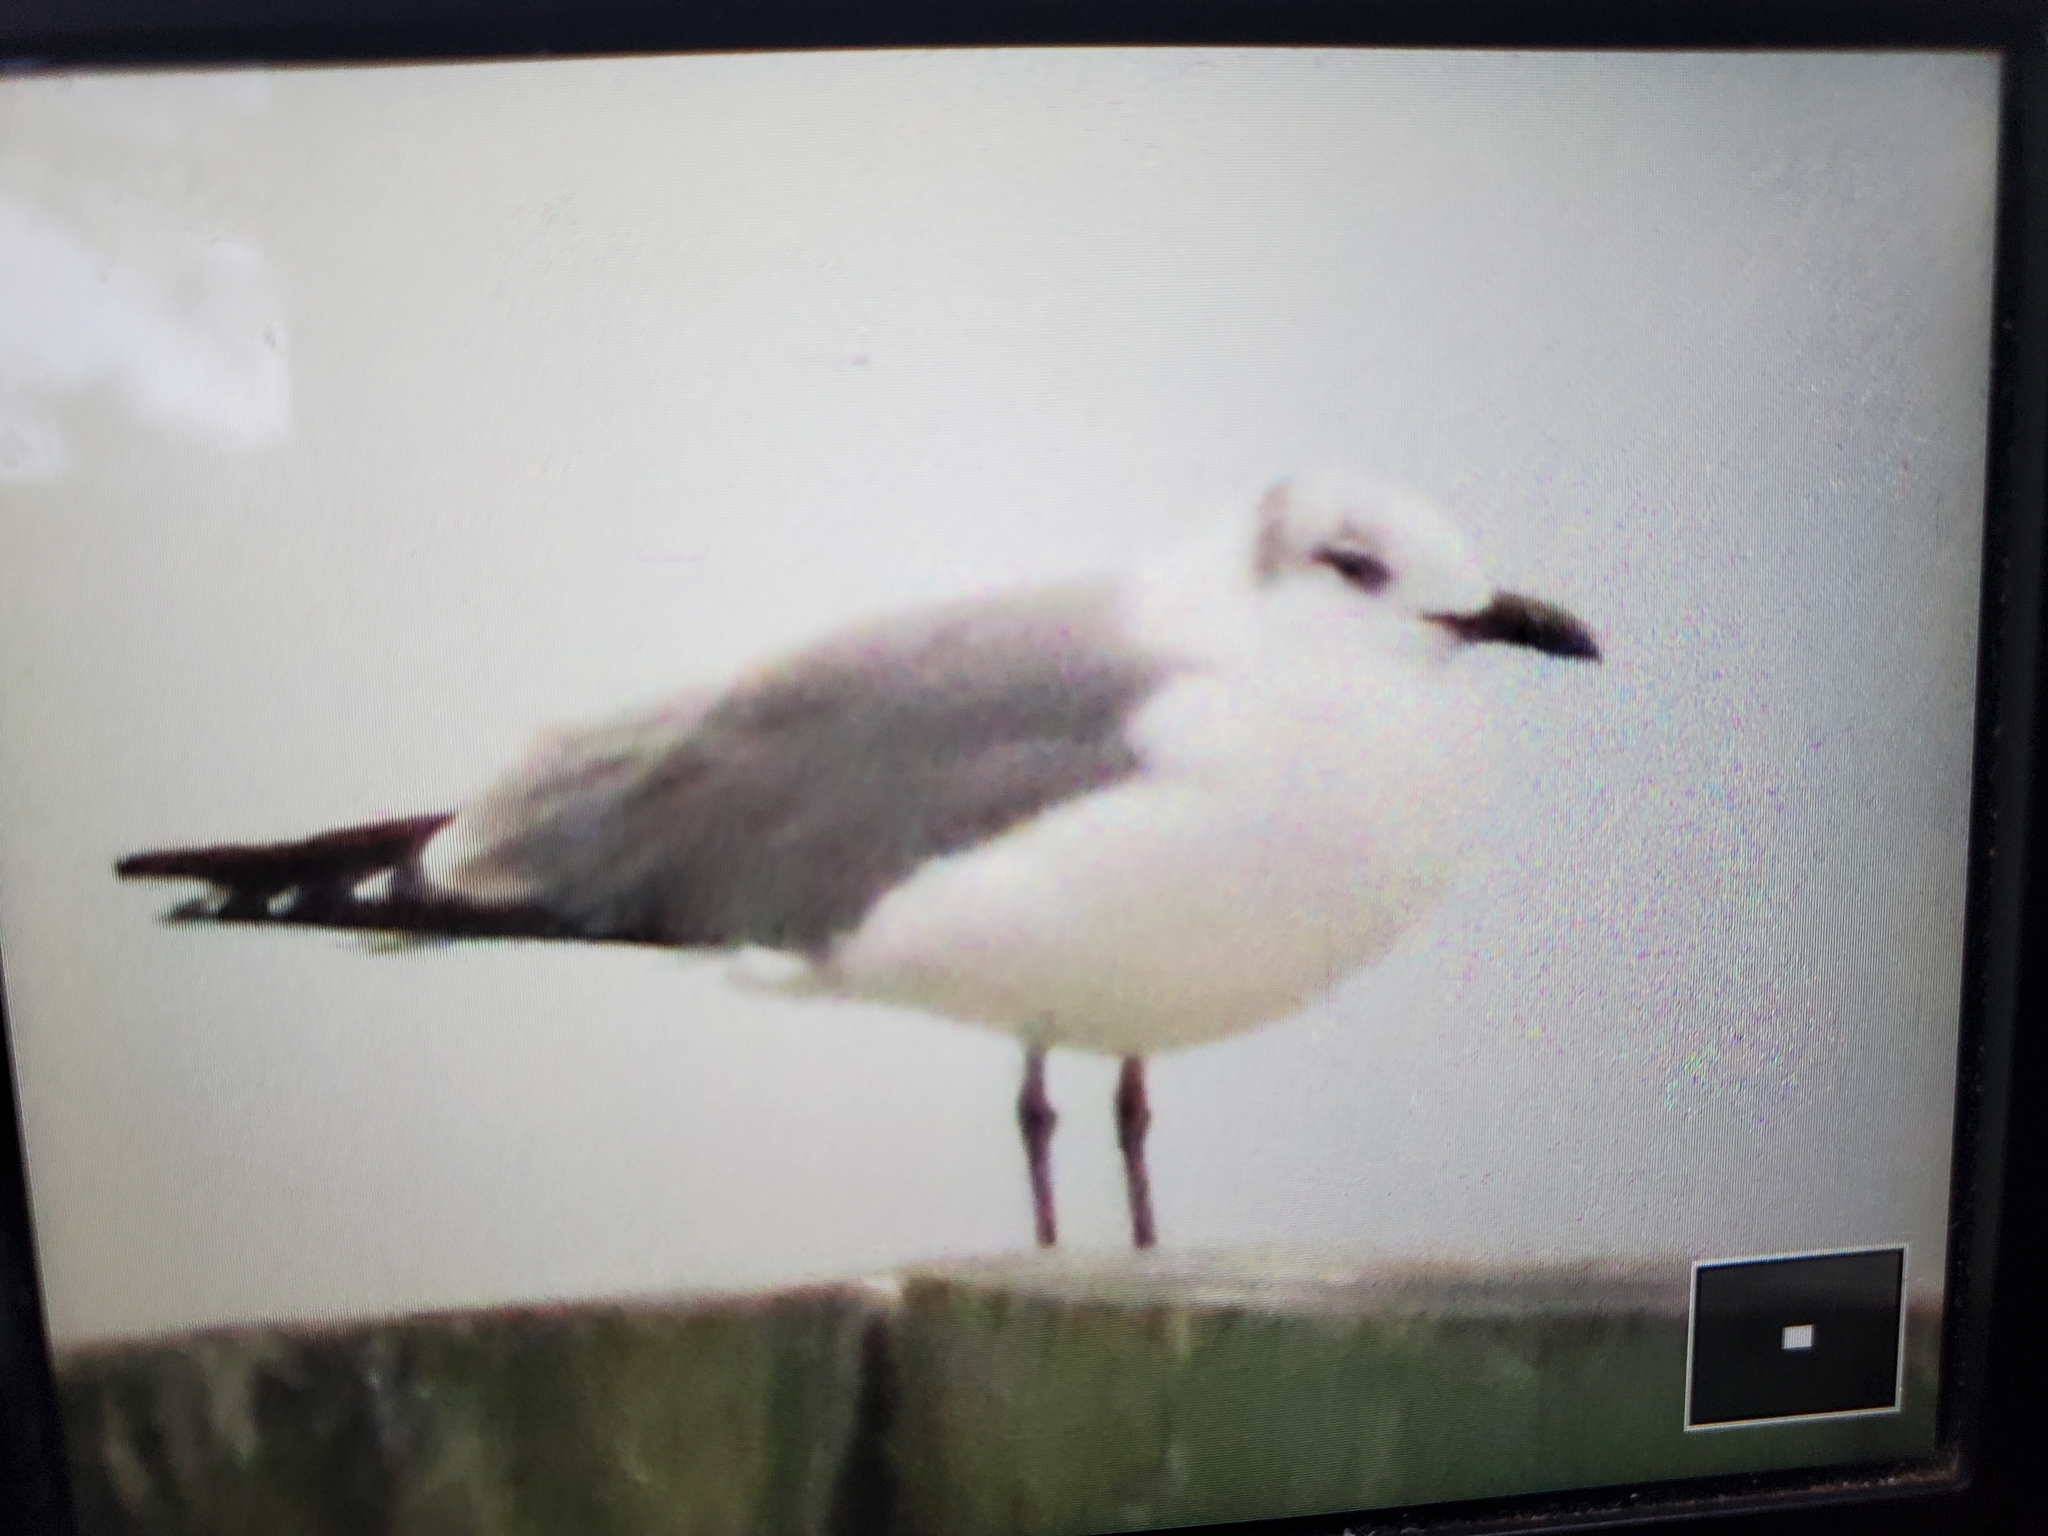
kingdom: Animalia
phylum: Chordata
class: Aves
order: Charadriiformes
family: Laridae
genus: Leucophaeus
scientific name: Leucophaeus atricilla
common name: Laughing gull
